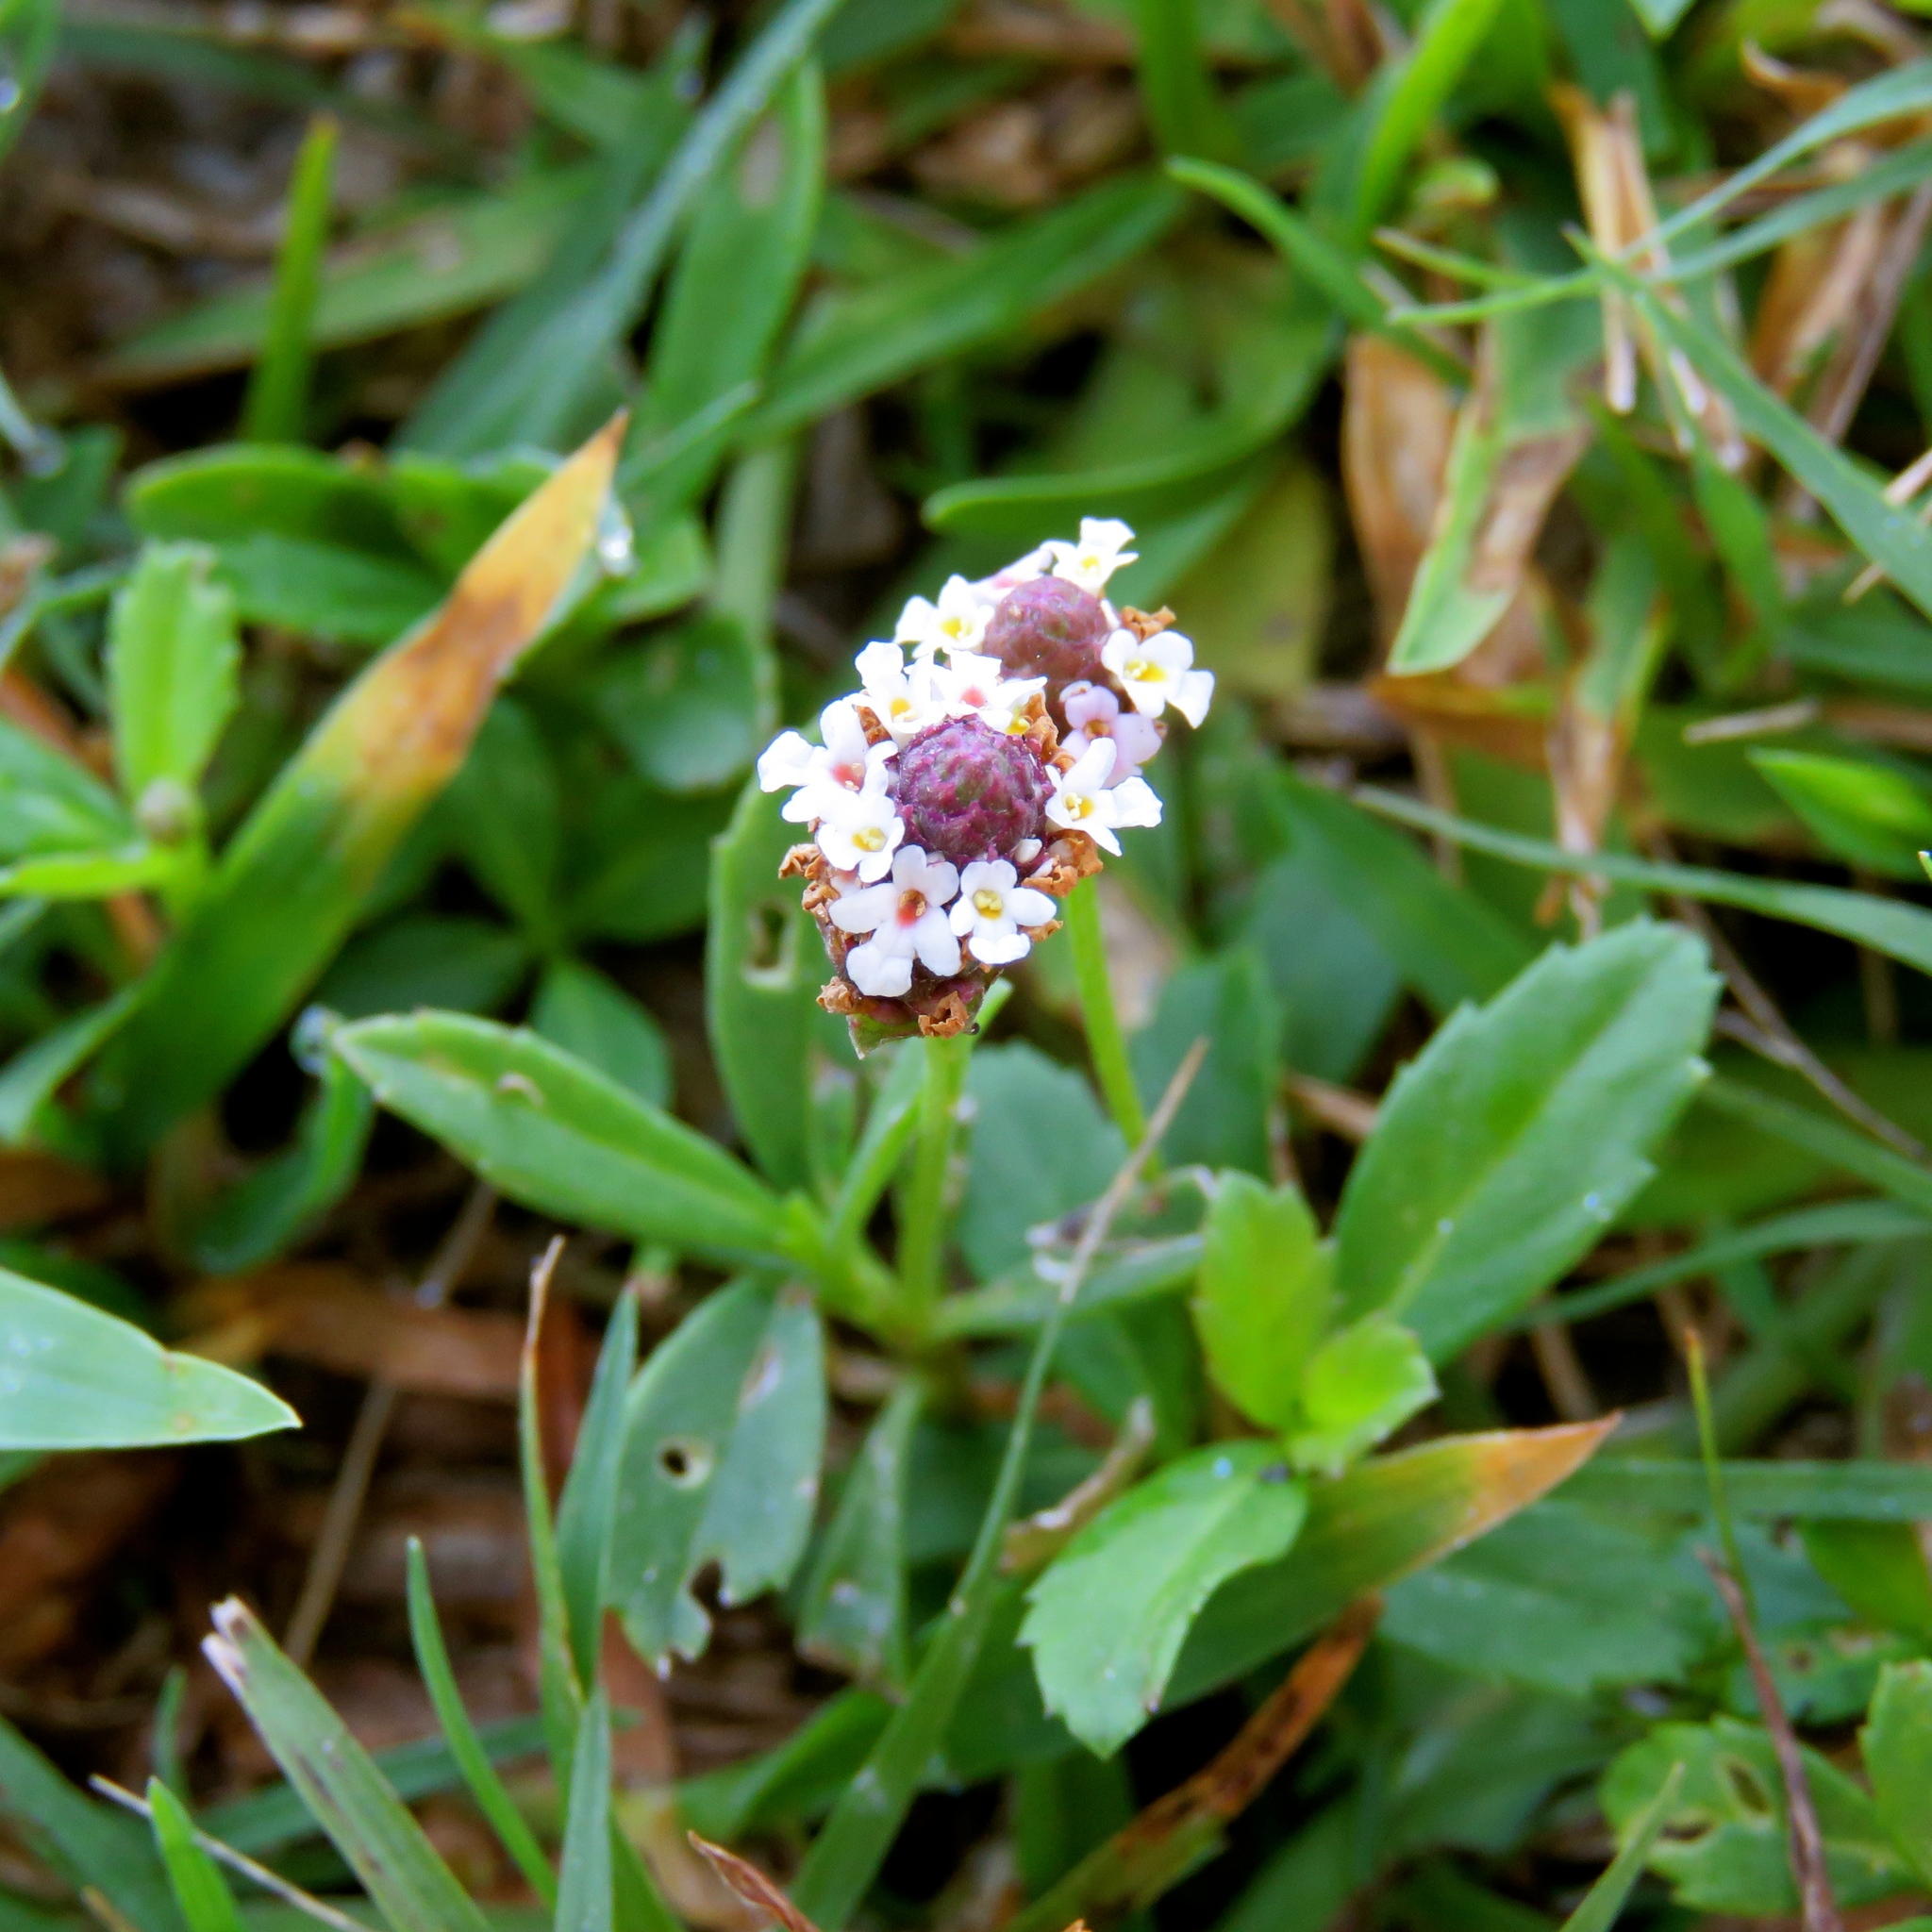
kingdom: Plantae
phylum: Tracheophyta
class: Magnoliopsida
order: Lamiales
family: Verbenaceae
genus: Phyla
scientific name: Phyla nodiflora
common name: Frogfruit
